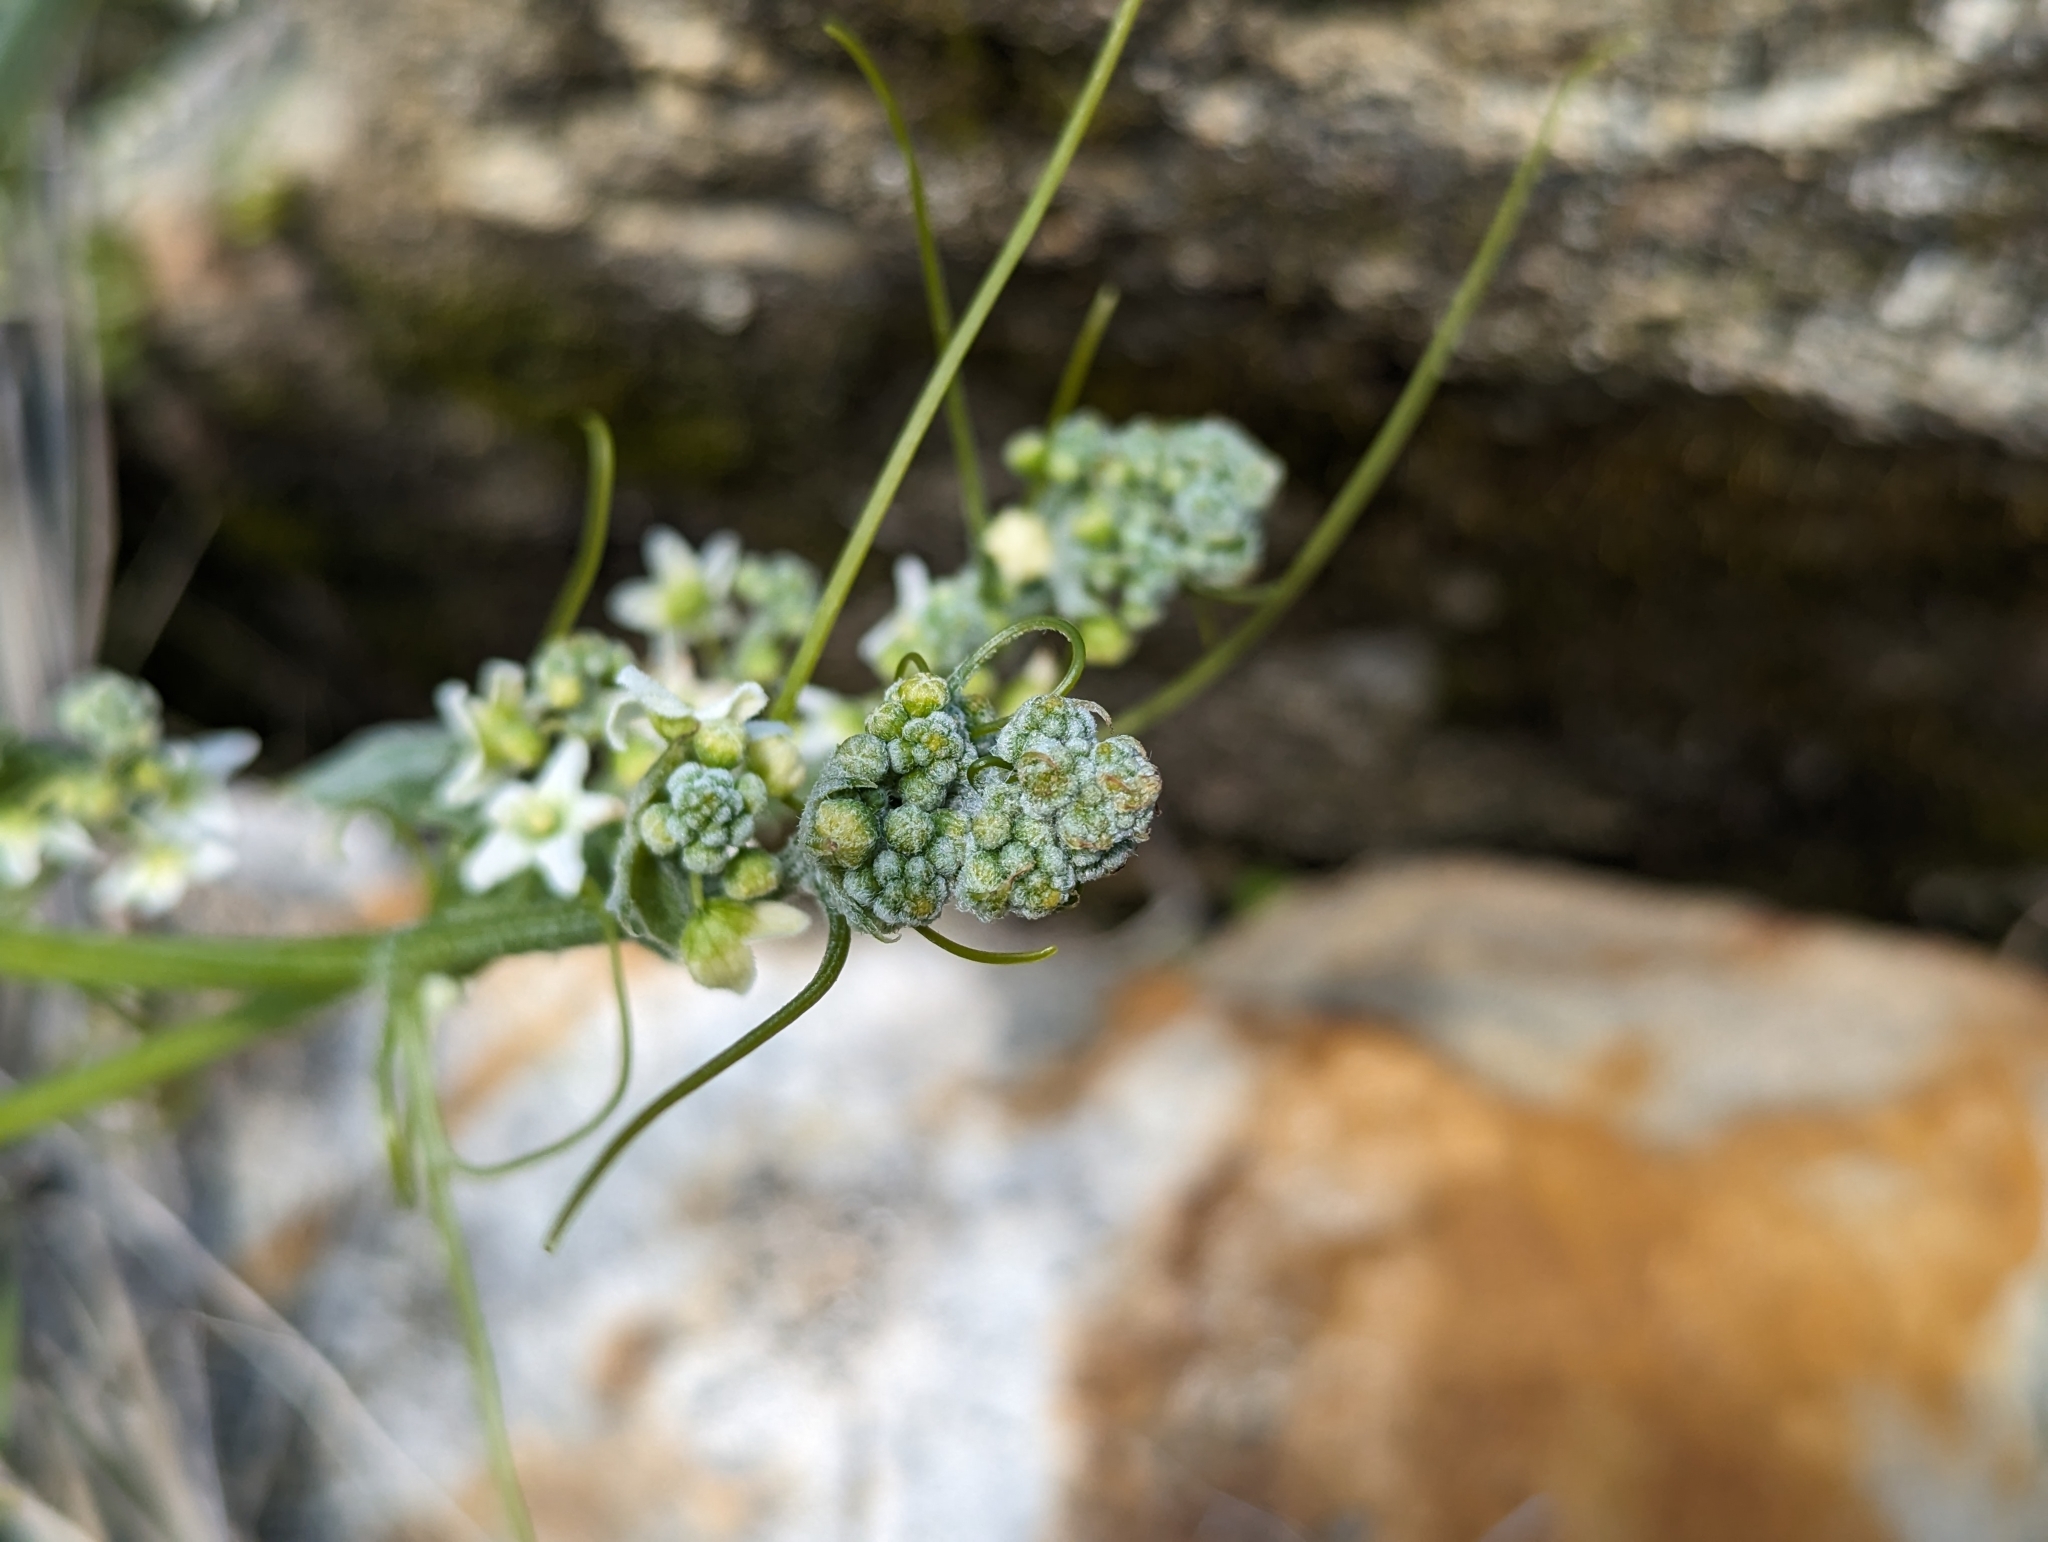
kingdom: Plantae
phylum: Tracheophyta
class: Magnoliopsida
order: Cucurbitales
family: Cucurbitaceae
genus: Marah
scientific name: Marah fabacea
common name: California manroot
